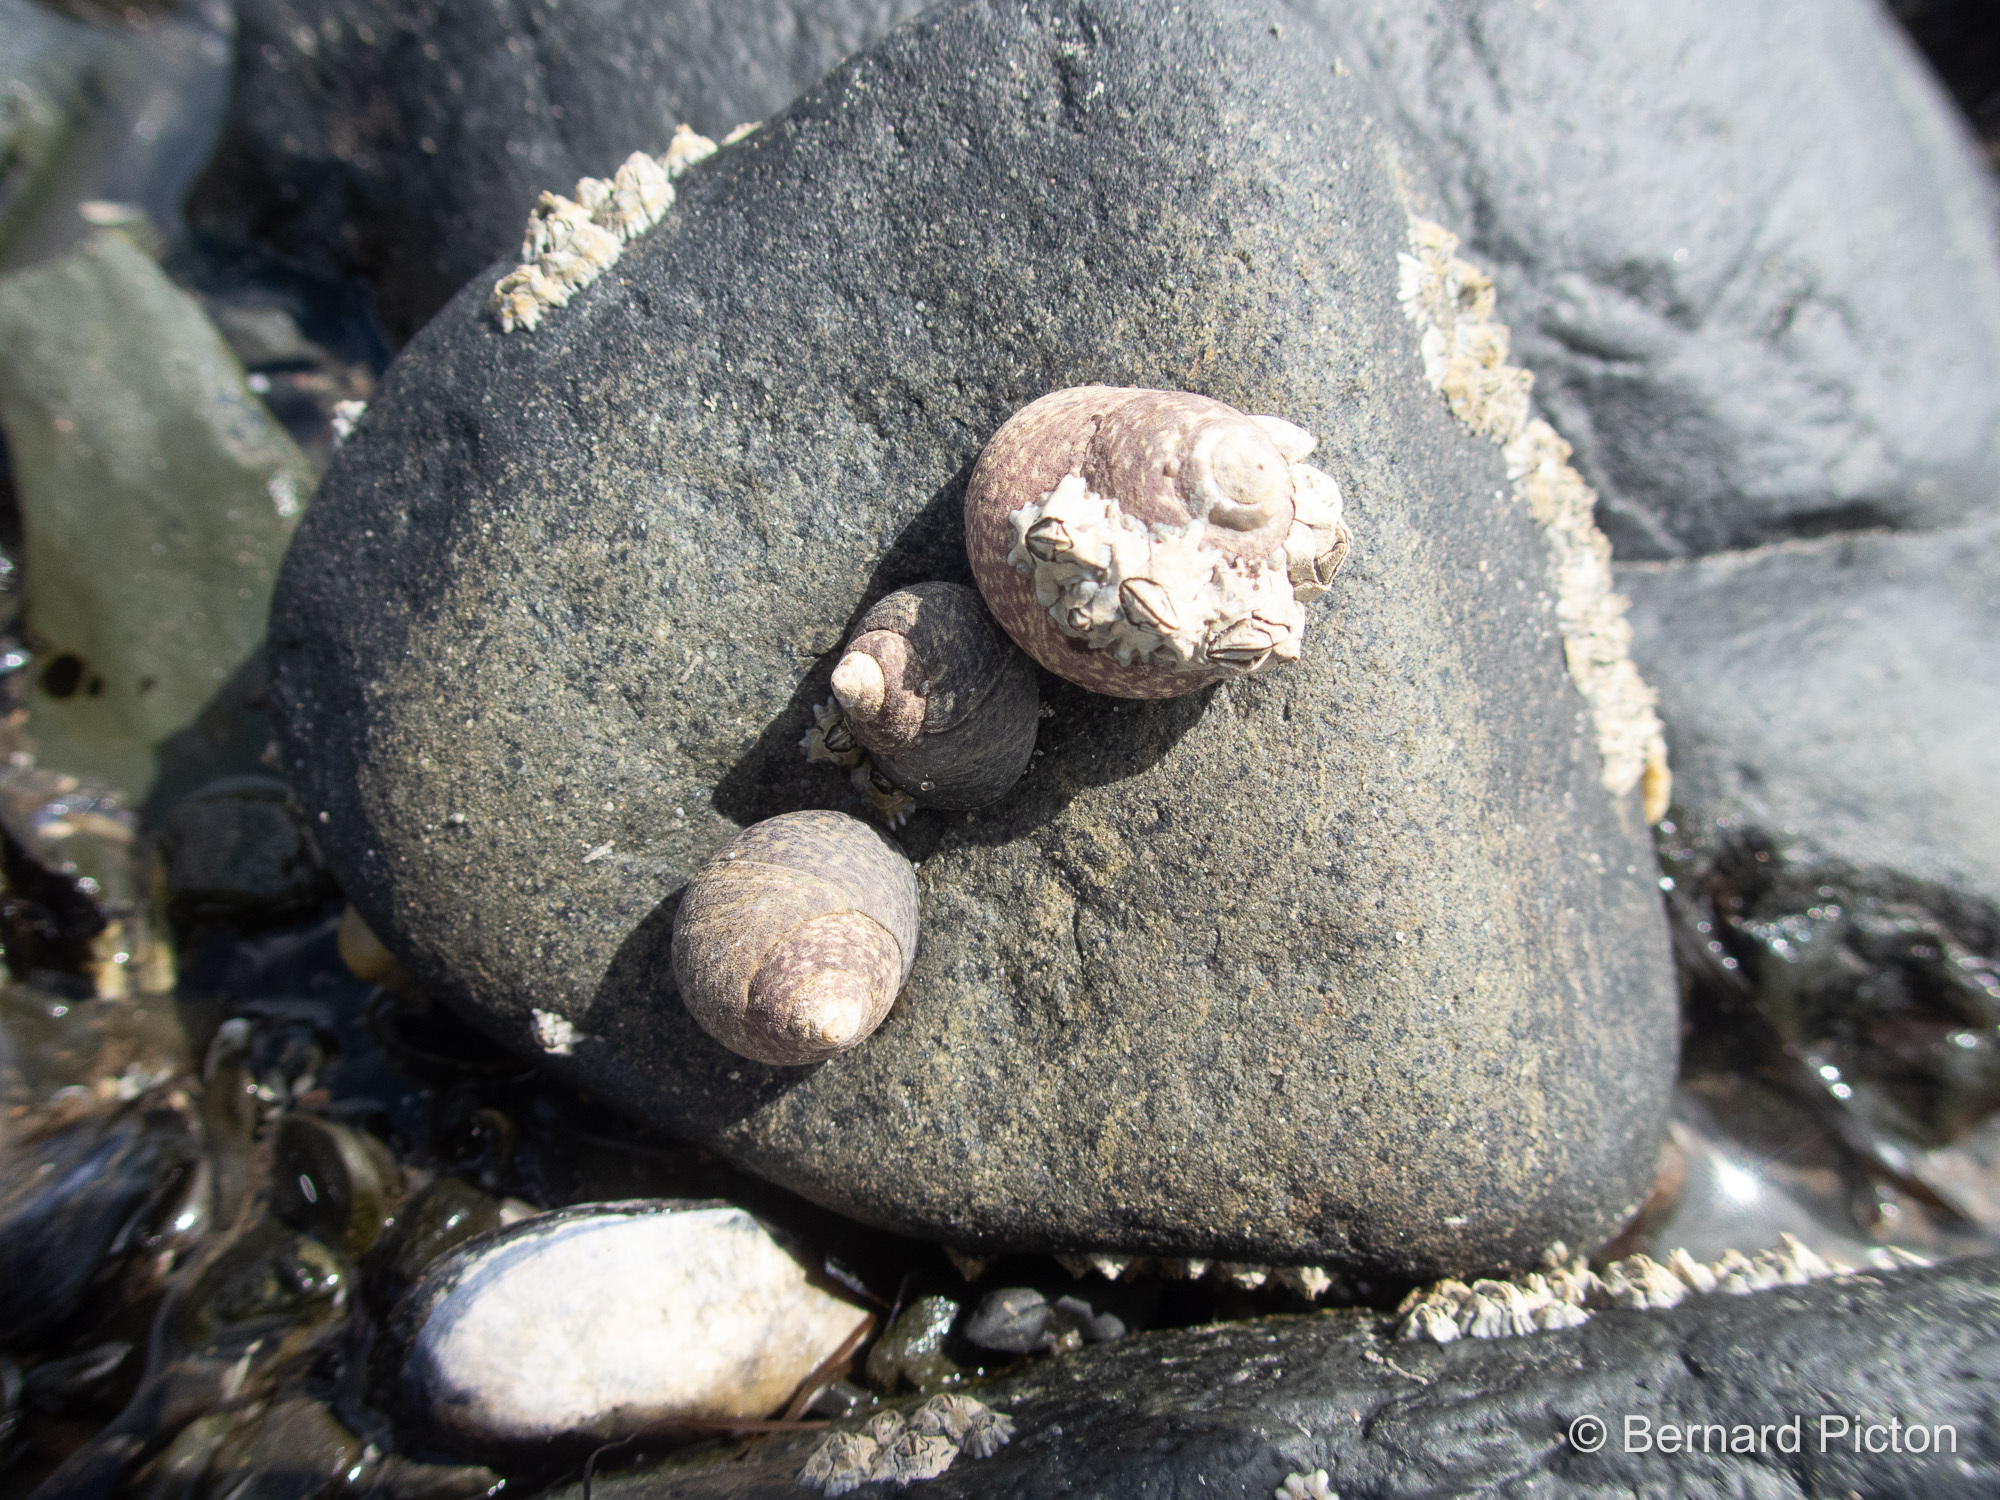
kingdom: Animalia
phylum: Mollusca
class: Gastropoda
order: Trochida
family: Trochidae
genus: Phorcus
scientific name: Phorcus lineatus
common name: Toothed top shell
